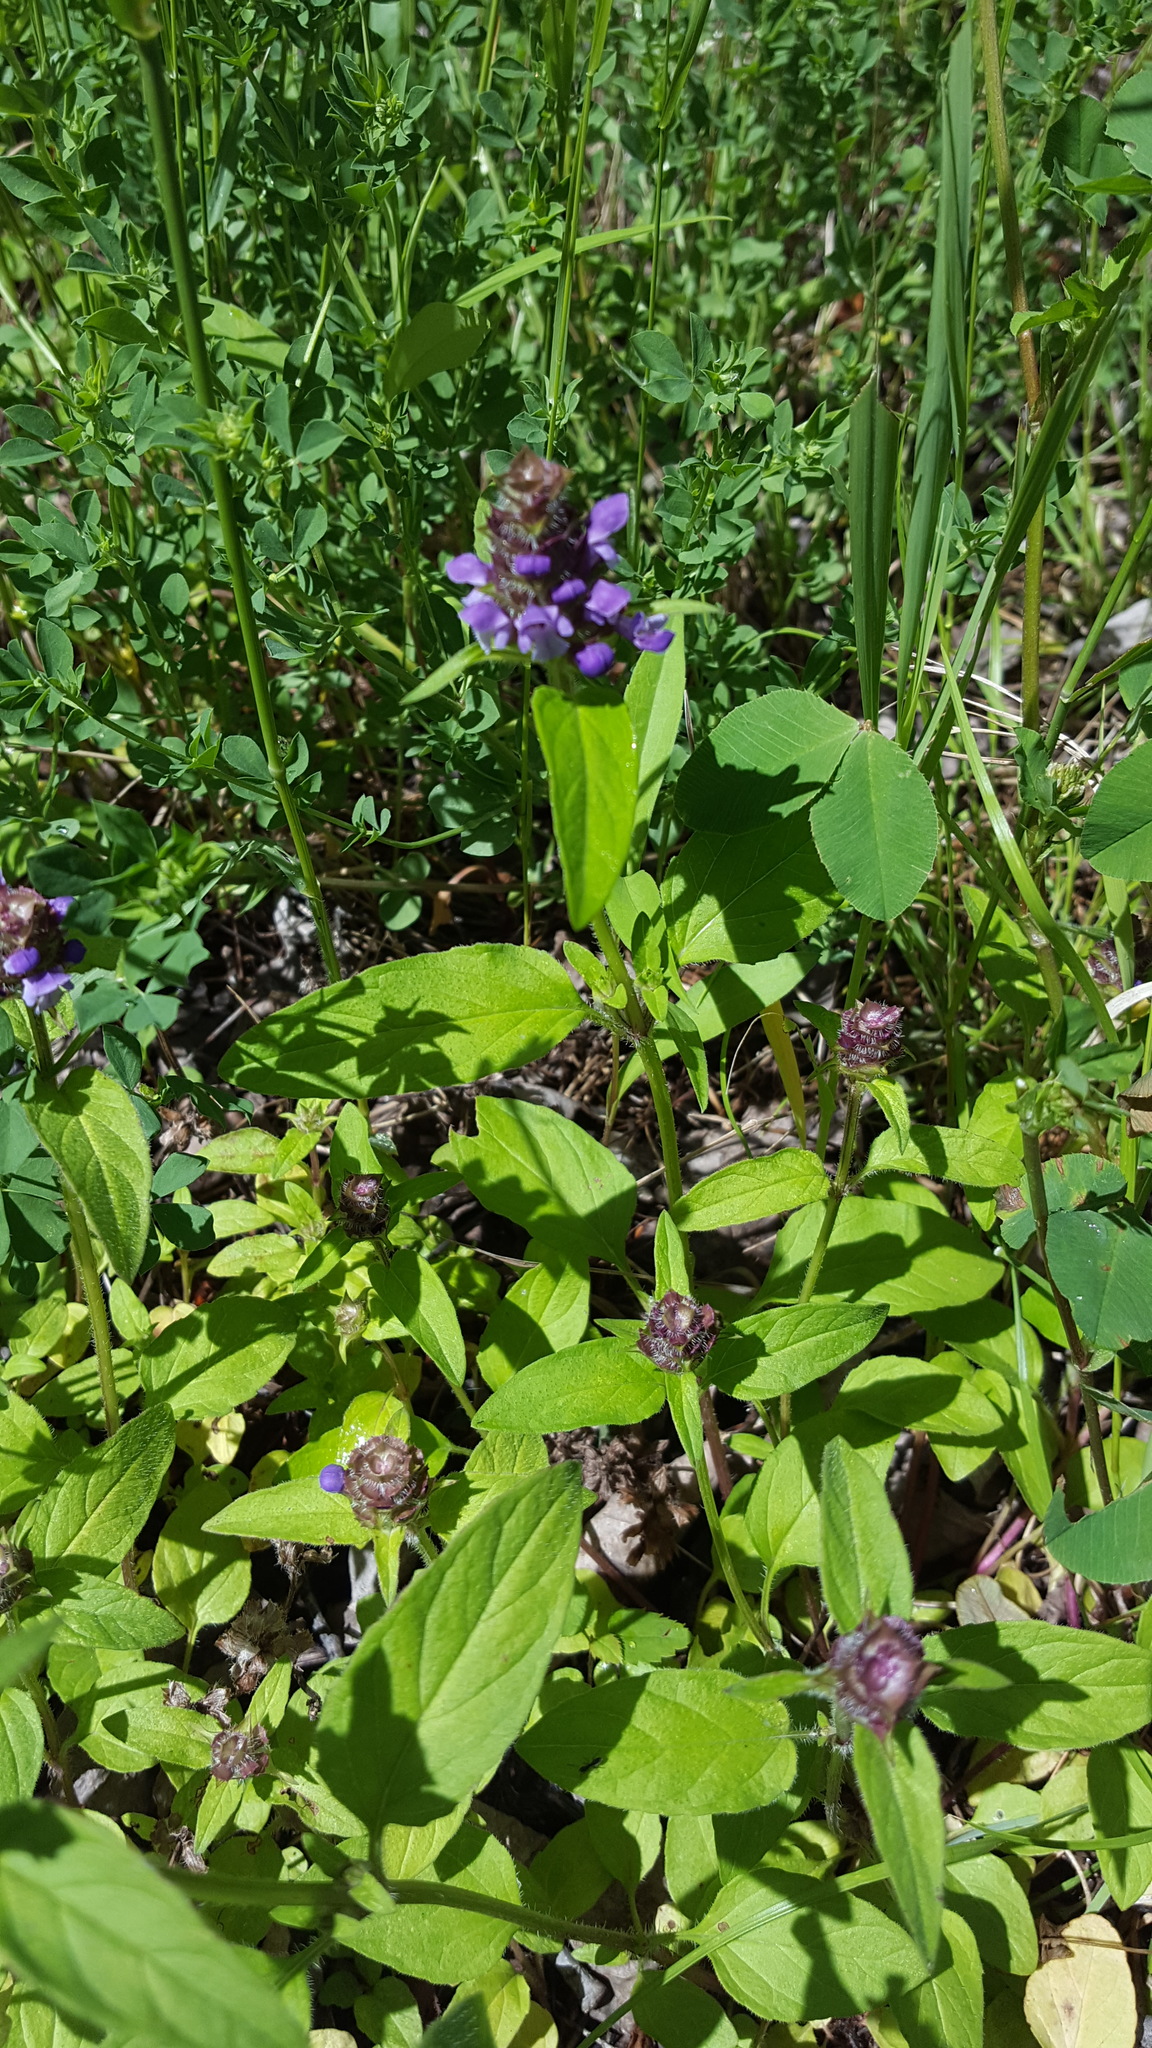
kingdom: Plantae
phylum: Tracheophyta
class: Magnoliopsida
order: Lamiales
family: Lamiaceae
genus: Prunella
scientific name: Prunella vulgaris
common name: Heal-all
